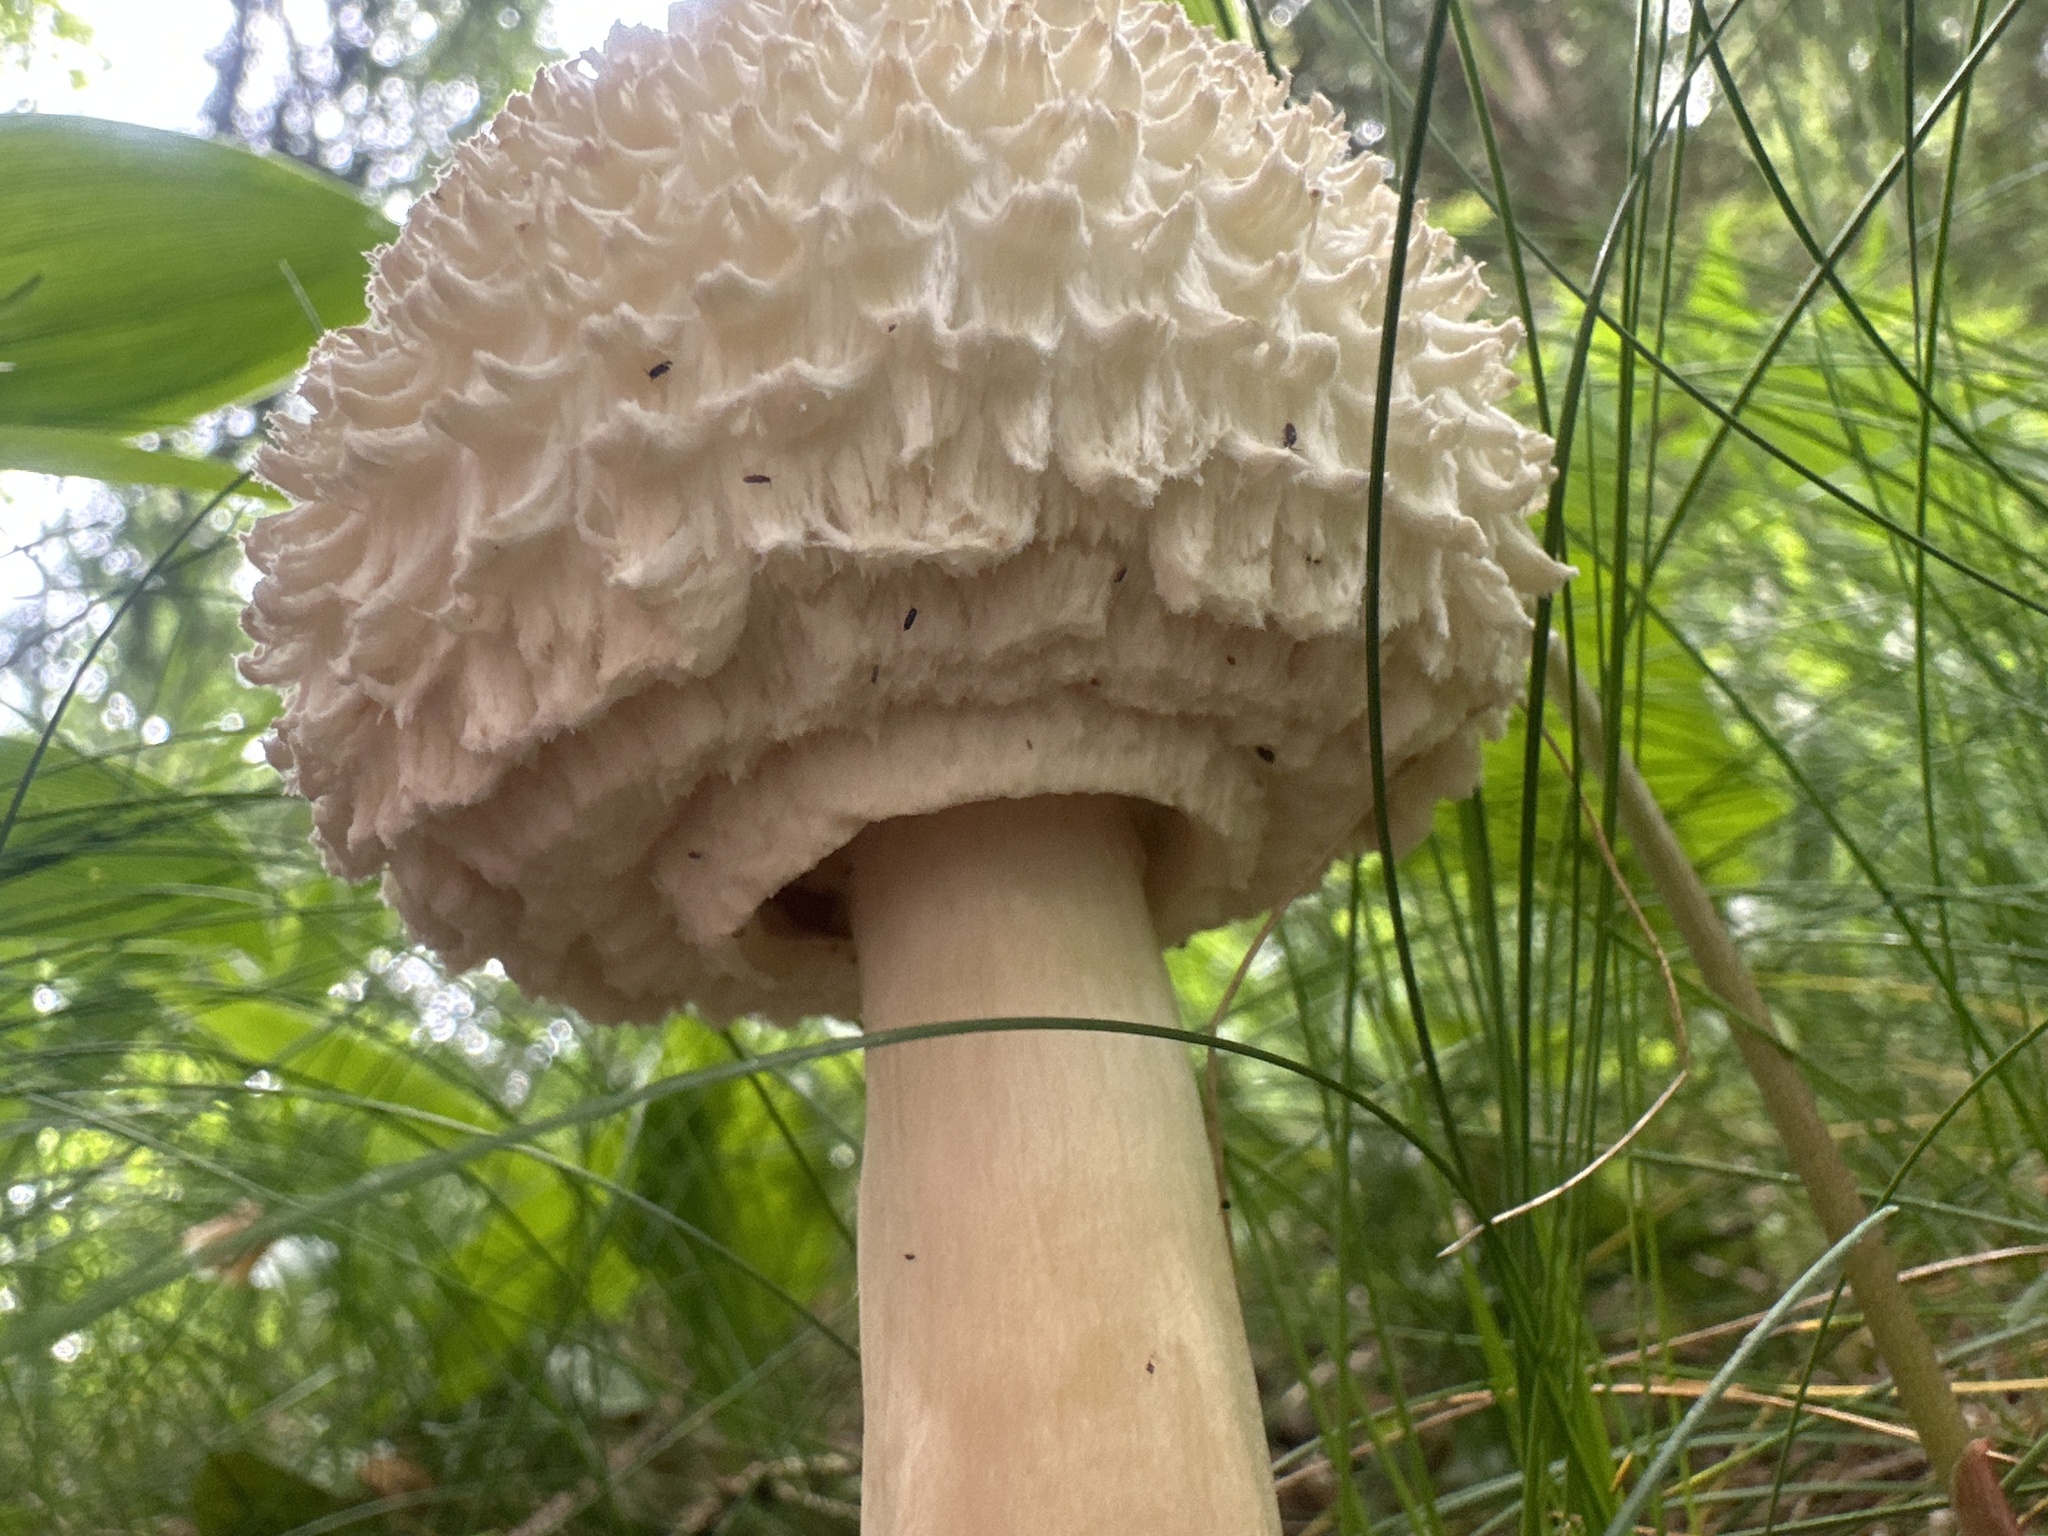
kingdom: Fungi
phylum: Basidiomycota
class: Agaricomycetes
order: Agaricales
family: Agaricaceae
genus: Leucoagaricus
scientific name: Leucoagaricus nympharum
